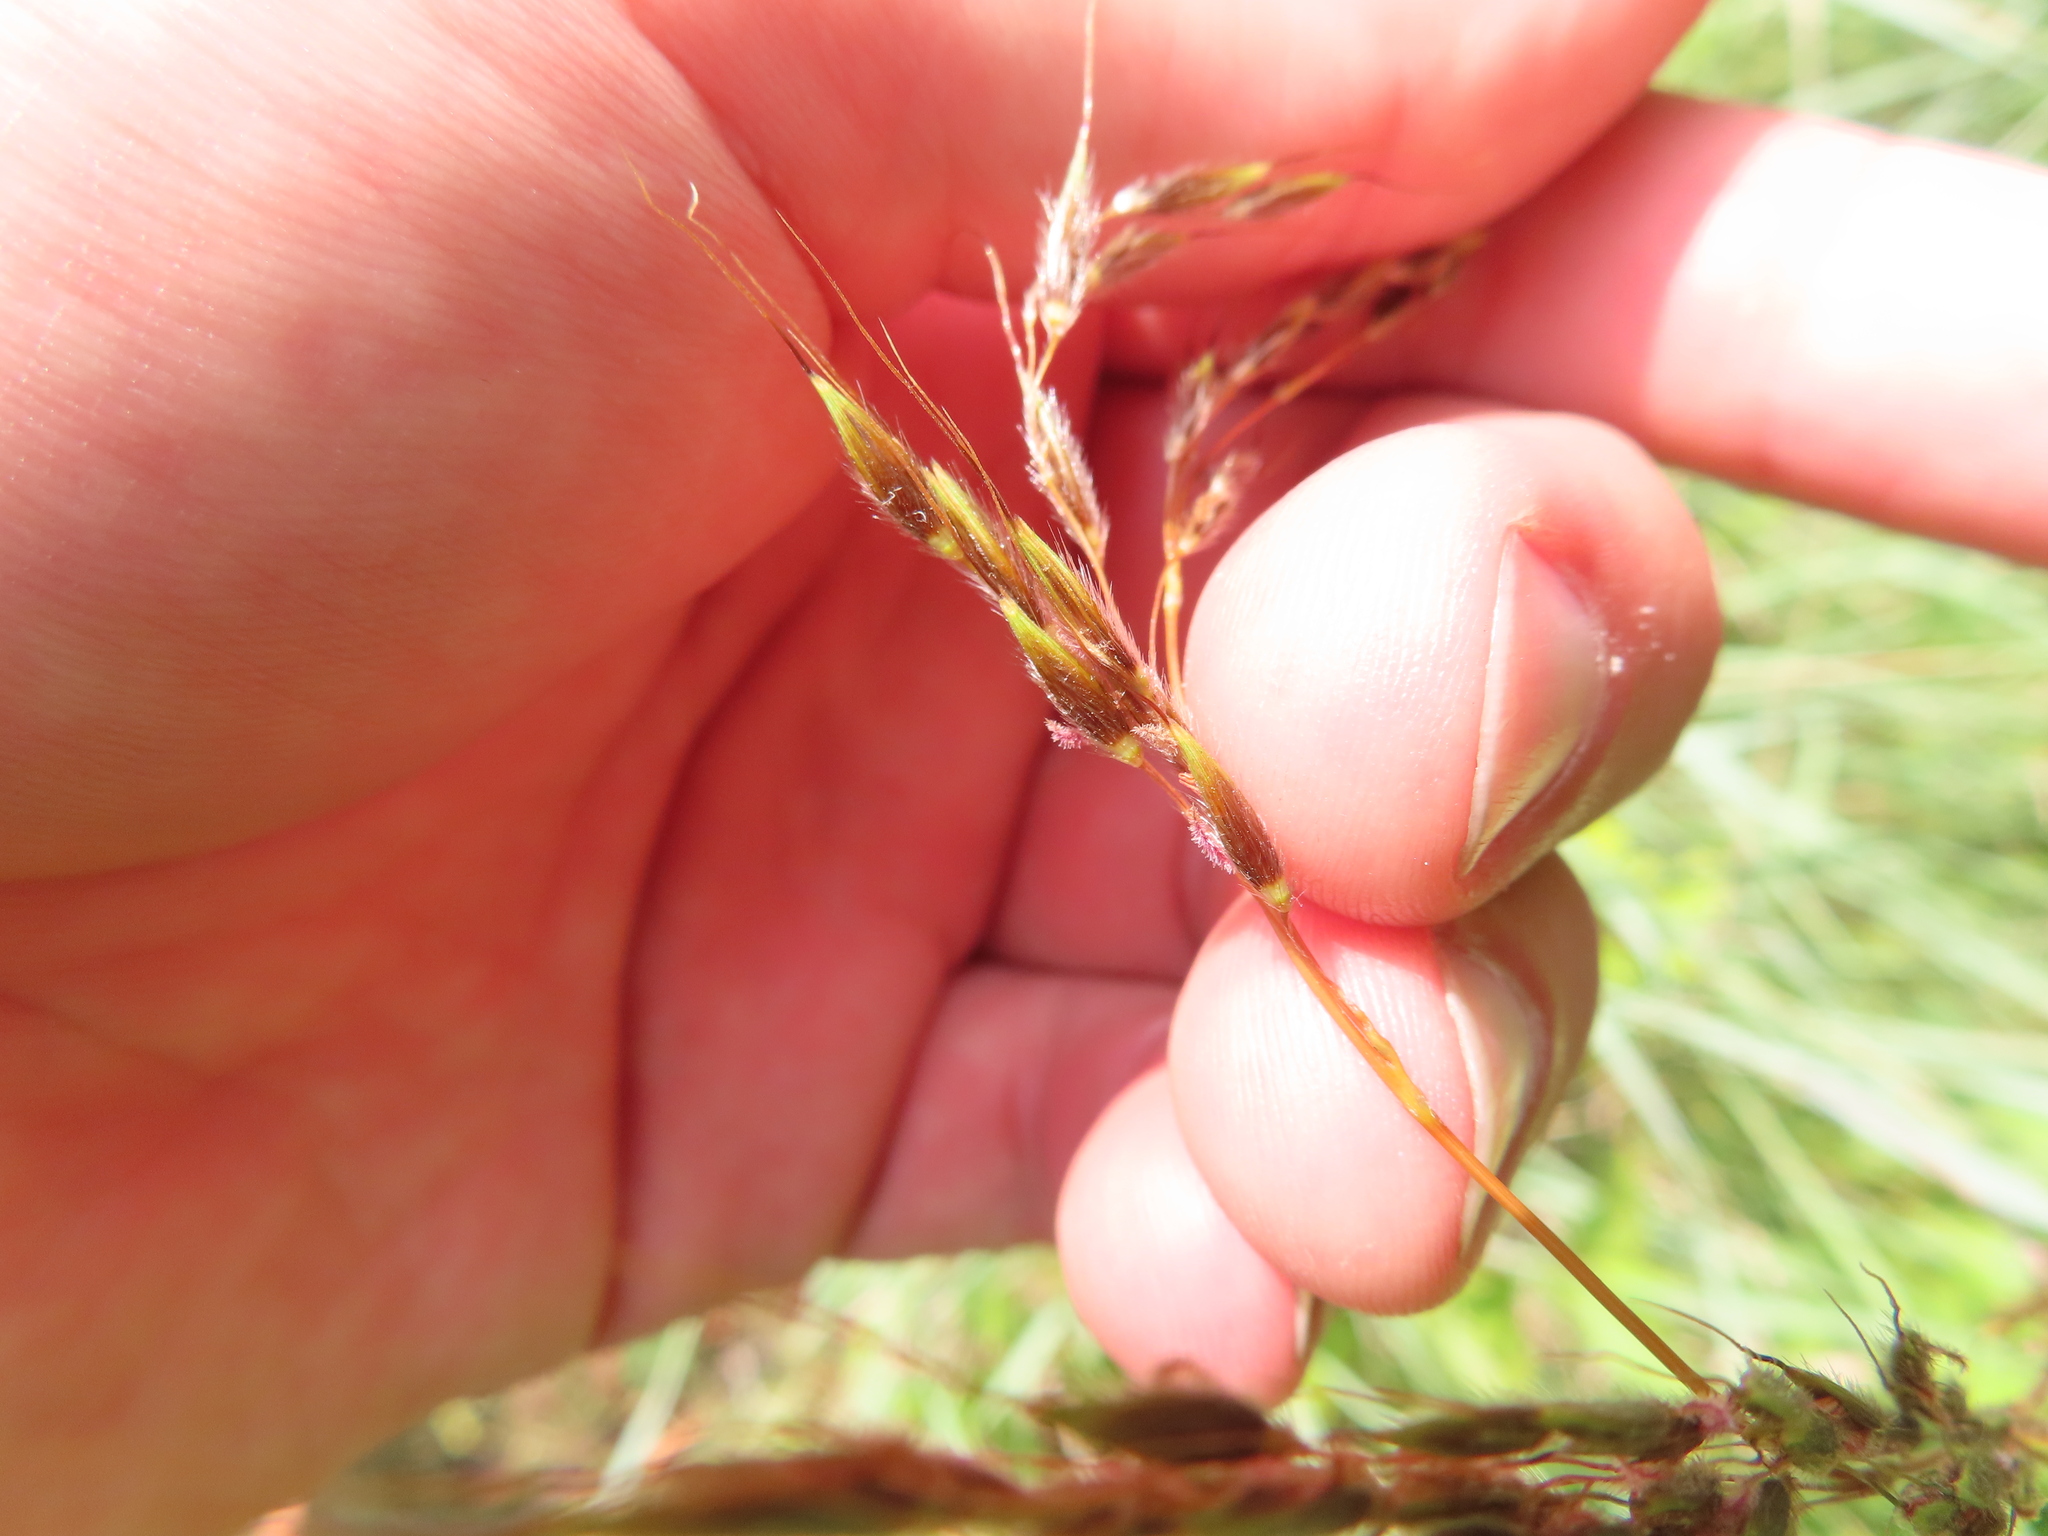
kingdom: Plantae
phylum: Tracheophyta
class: Liliopsida
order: Poales
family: Poaceae
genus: Sorghastrum
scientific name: Sorghastrum nutans
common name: Indian grass
